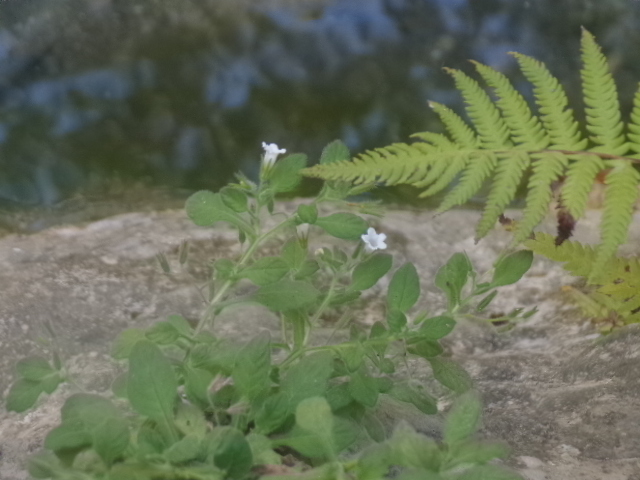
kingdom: Plantae
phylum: Tracheophyta
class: Magnoliopsida
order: Boraginales
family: Namaceae
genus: Nama
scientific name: Nama jamaicensis
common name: Jamaicanweed
